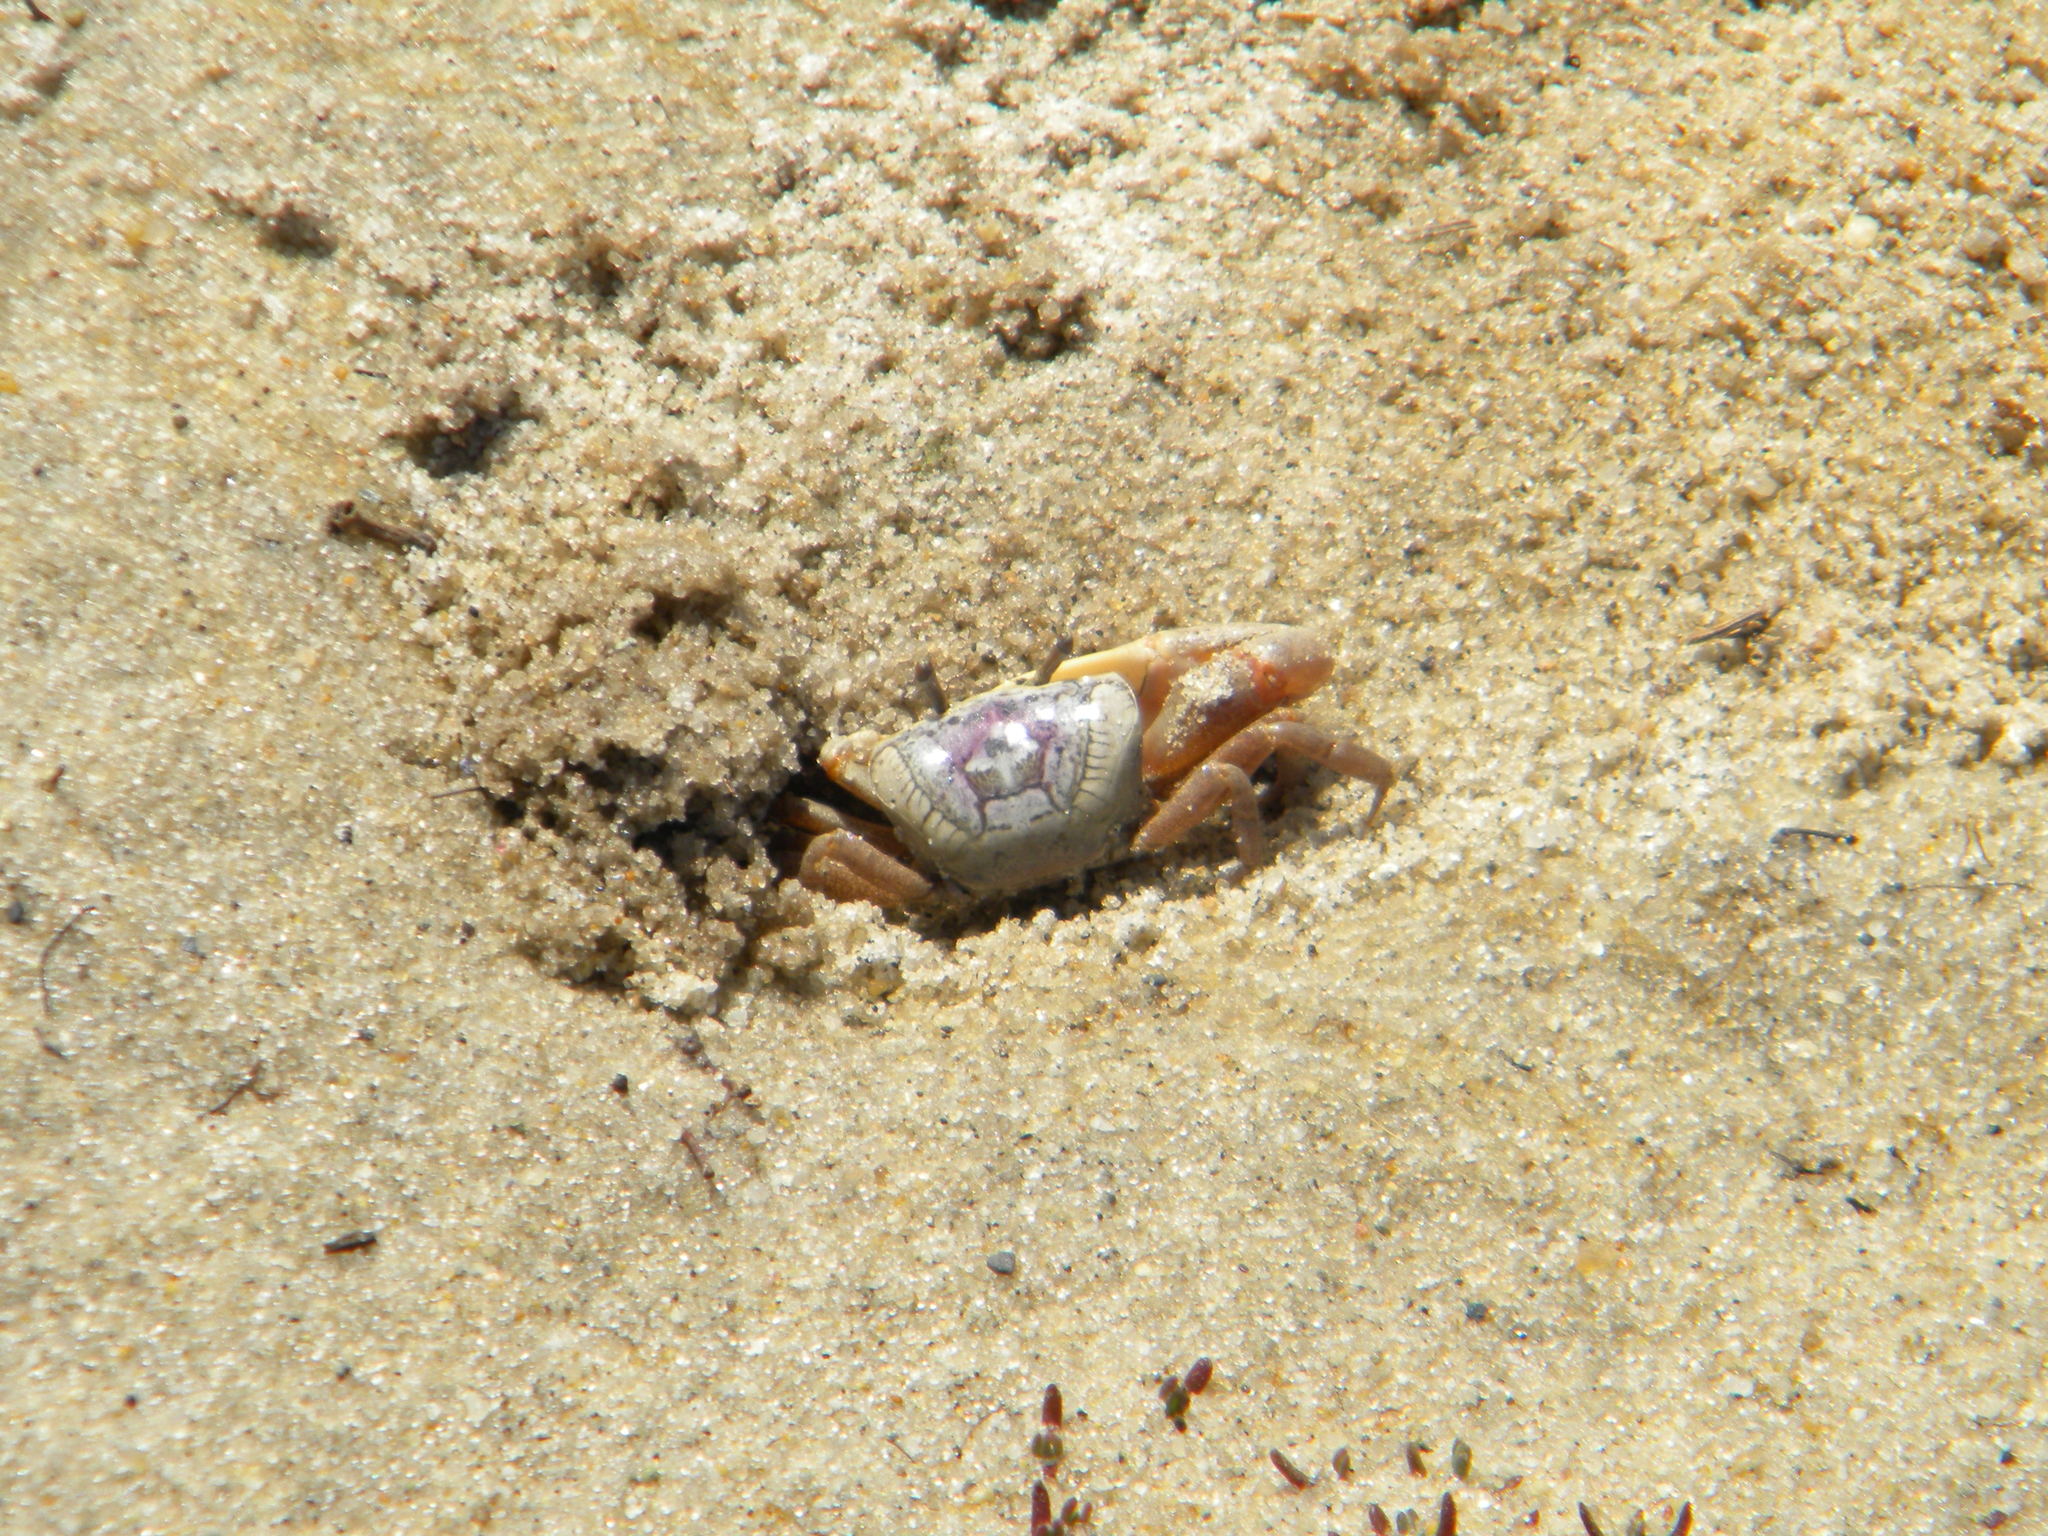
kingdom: Animalia
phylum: Arthropoda
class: Malacostraca
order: Decapoda
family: Ocypodidae
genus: Leptuca
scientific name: Leptuca pugilator
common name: Atlantic sand fiddler crab
